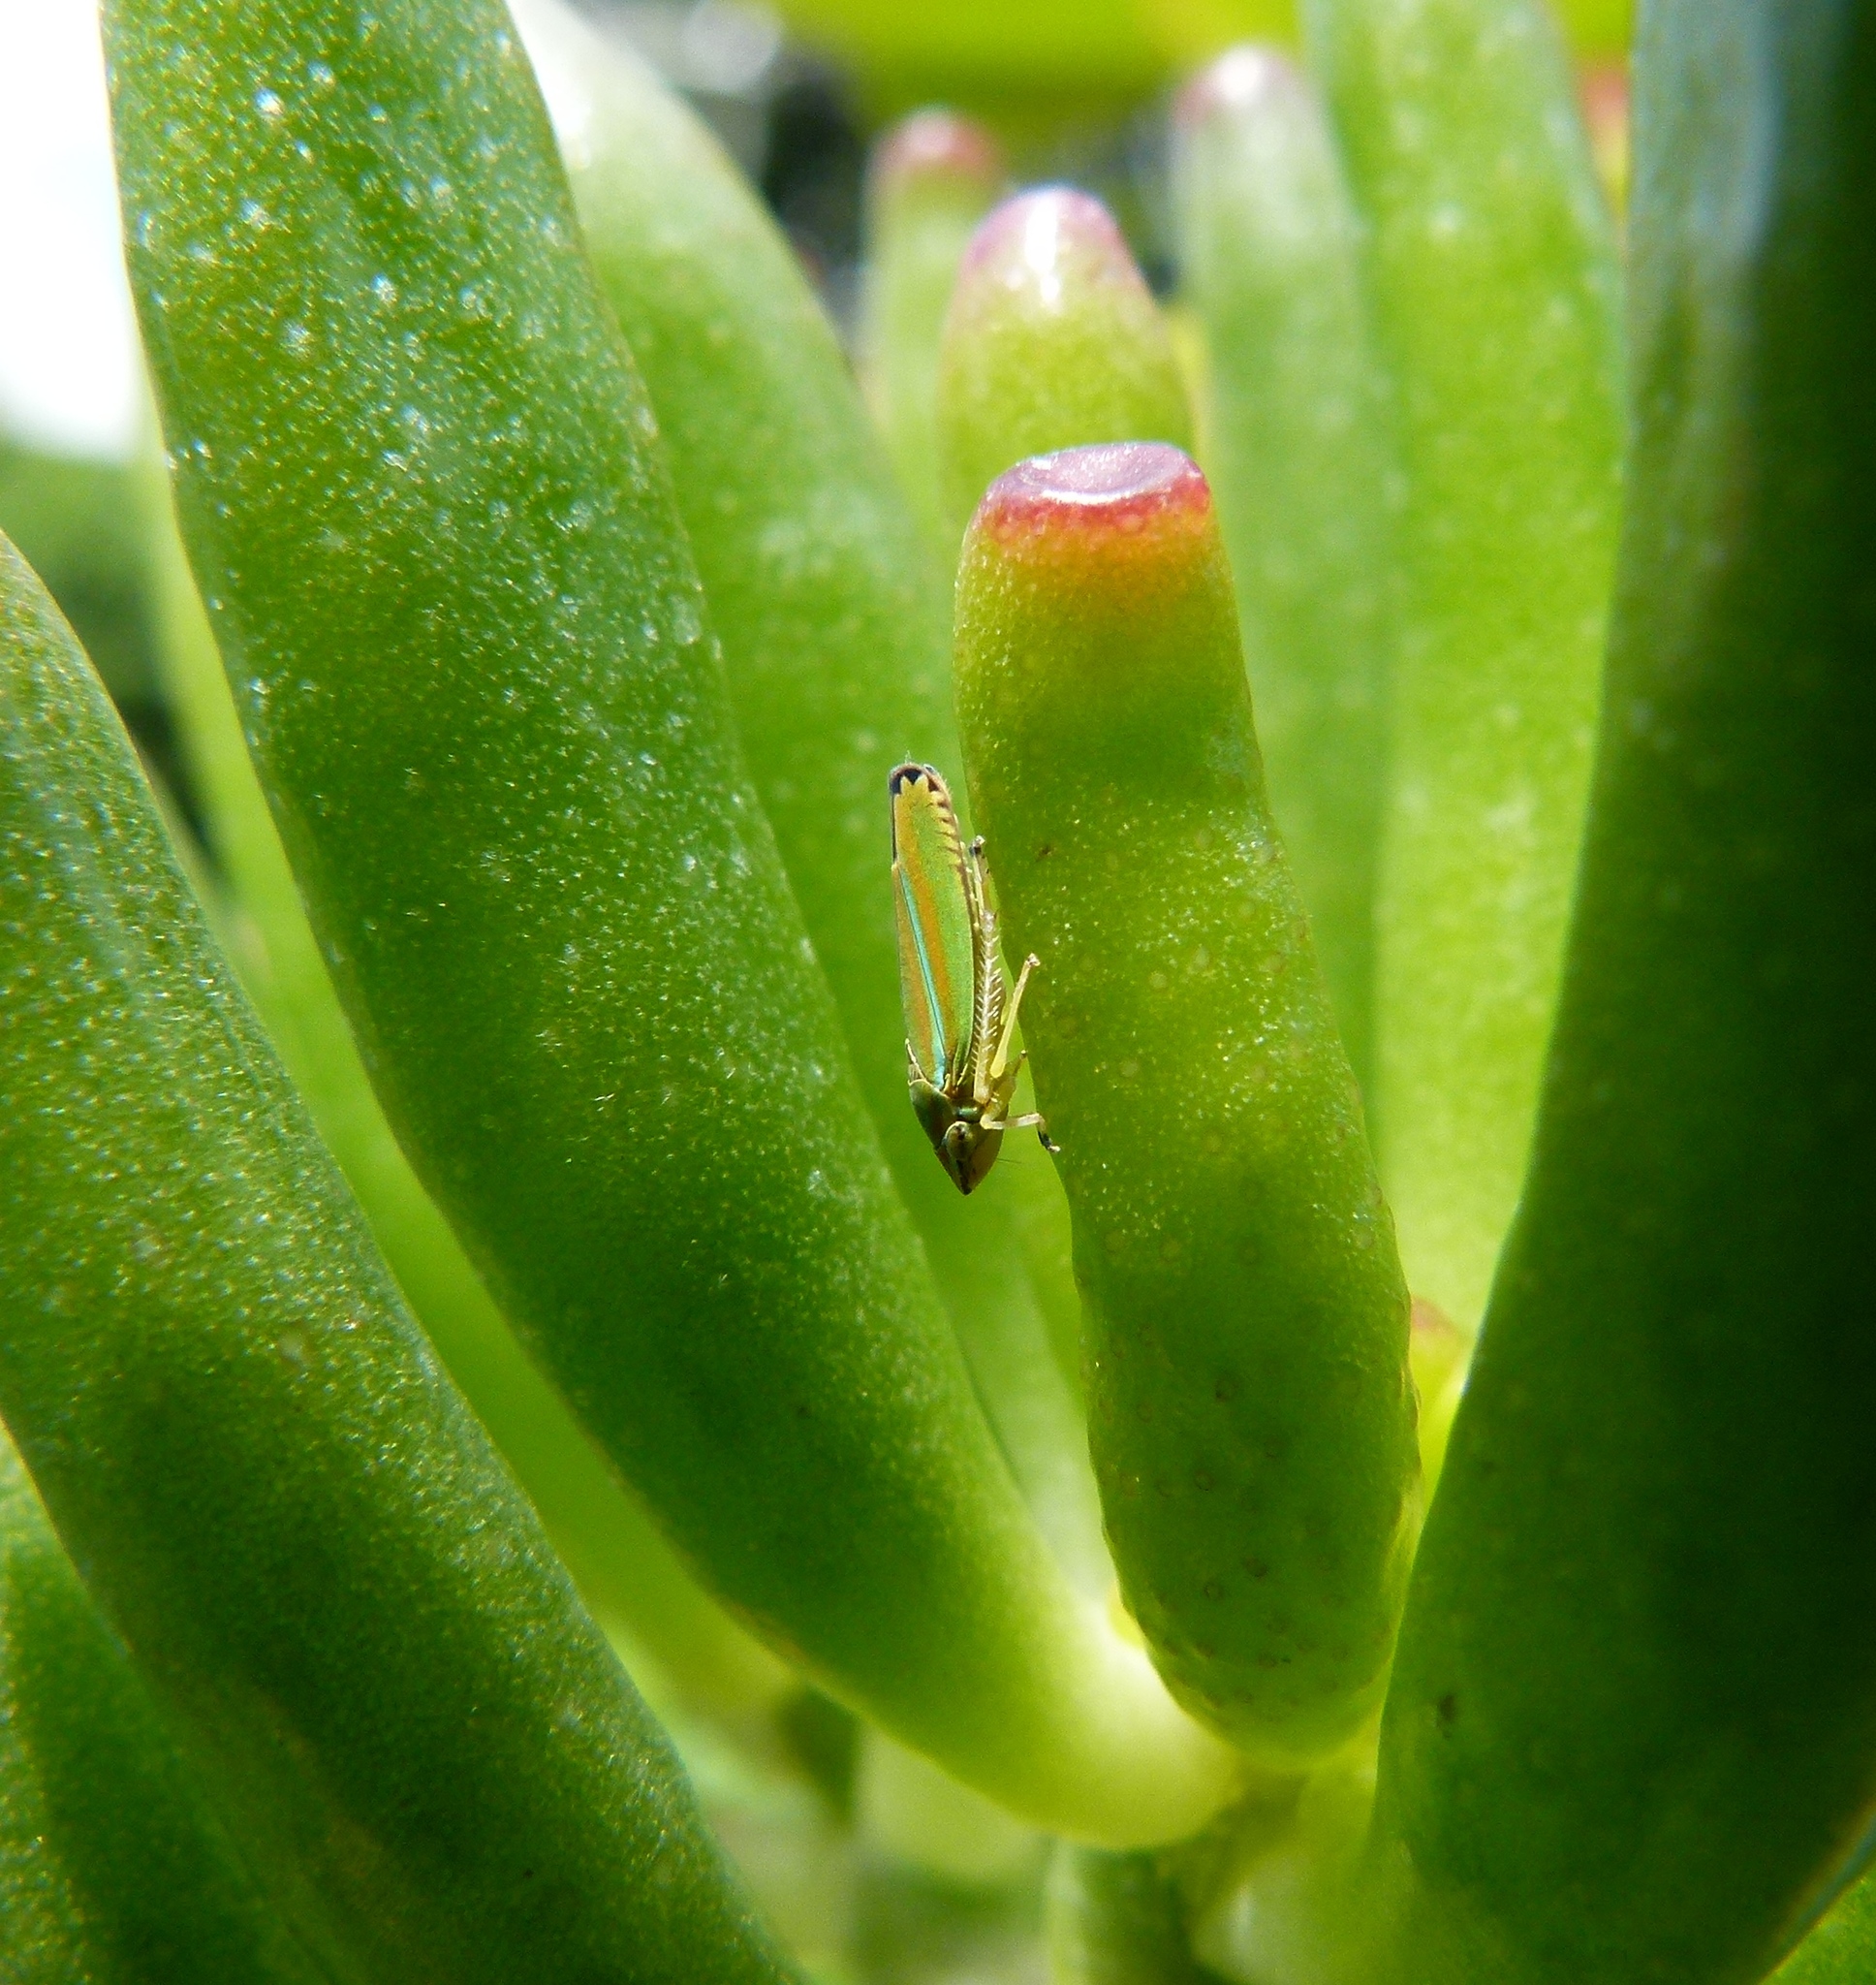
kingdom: Animalia
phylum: Arthropoda
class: Insecta
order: Hemiptera
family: Cicadellidae
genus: Graphocephala
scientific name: Graphocephala versuta
